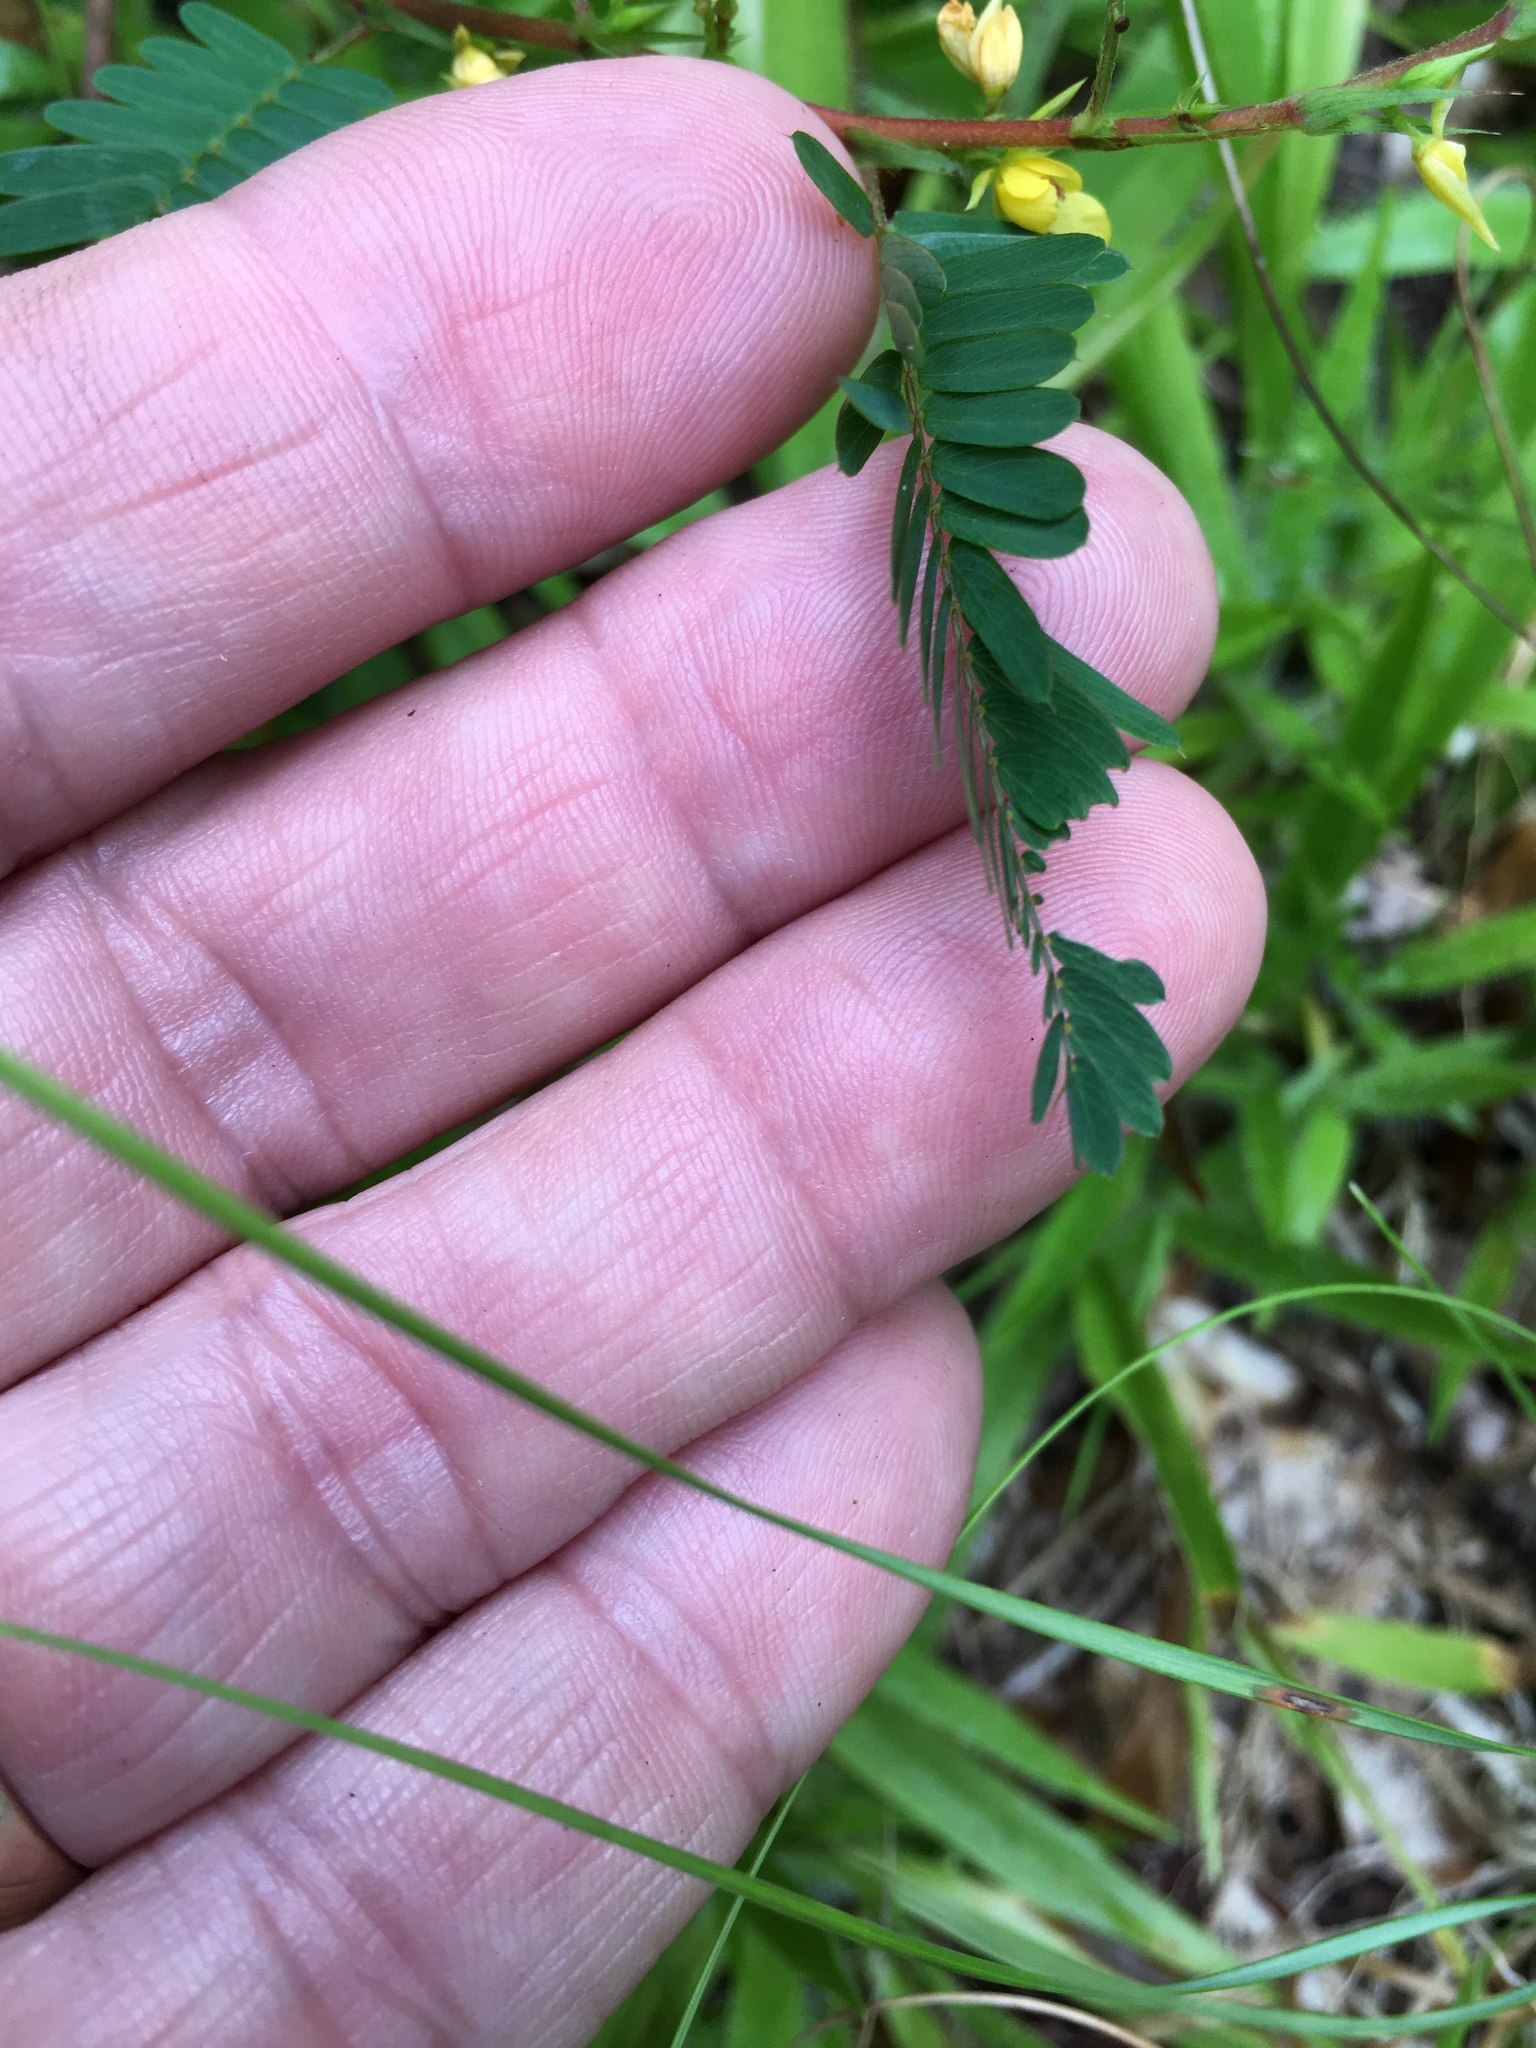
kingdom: Plantae
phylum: Tracheophyta
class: Magnoliopsida
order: Fabales
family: Fabaceae
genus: Chamaecrista
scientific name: Chamaecrista nictitans
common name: Sensitive cassia
